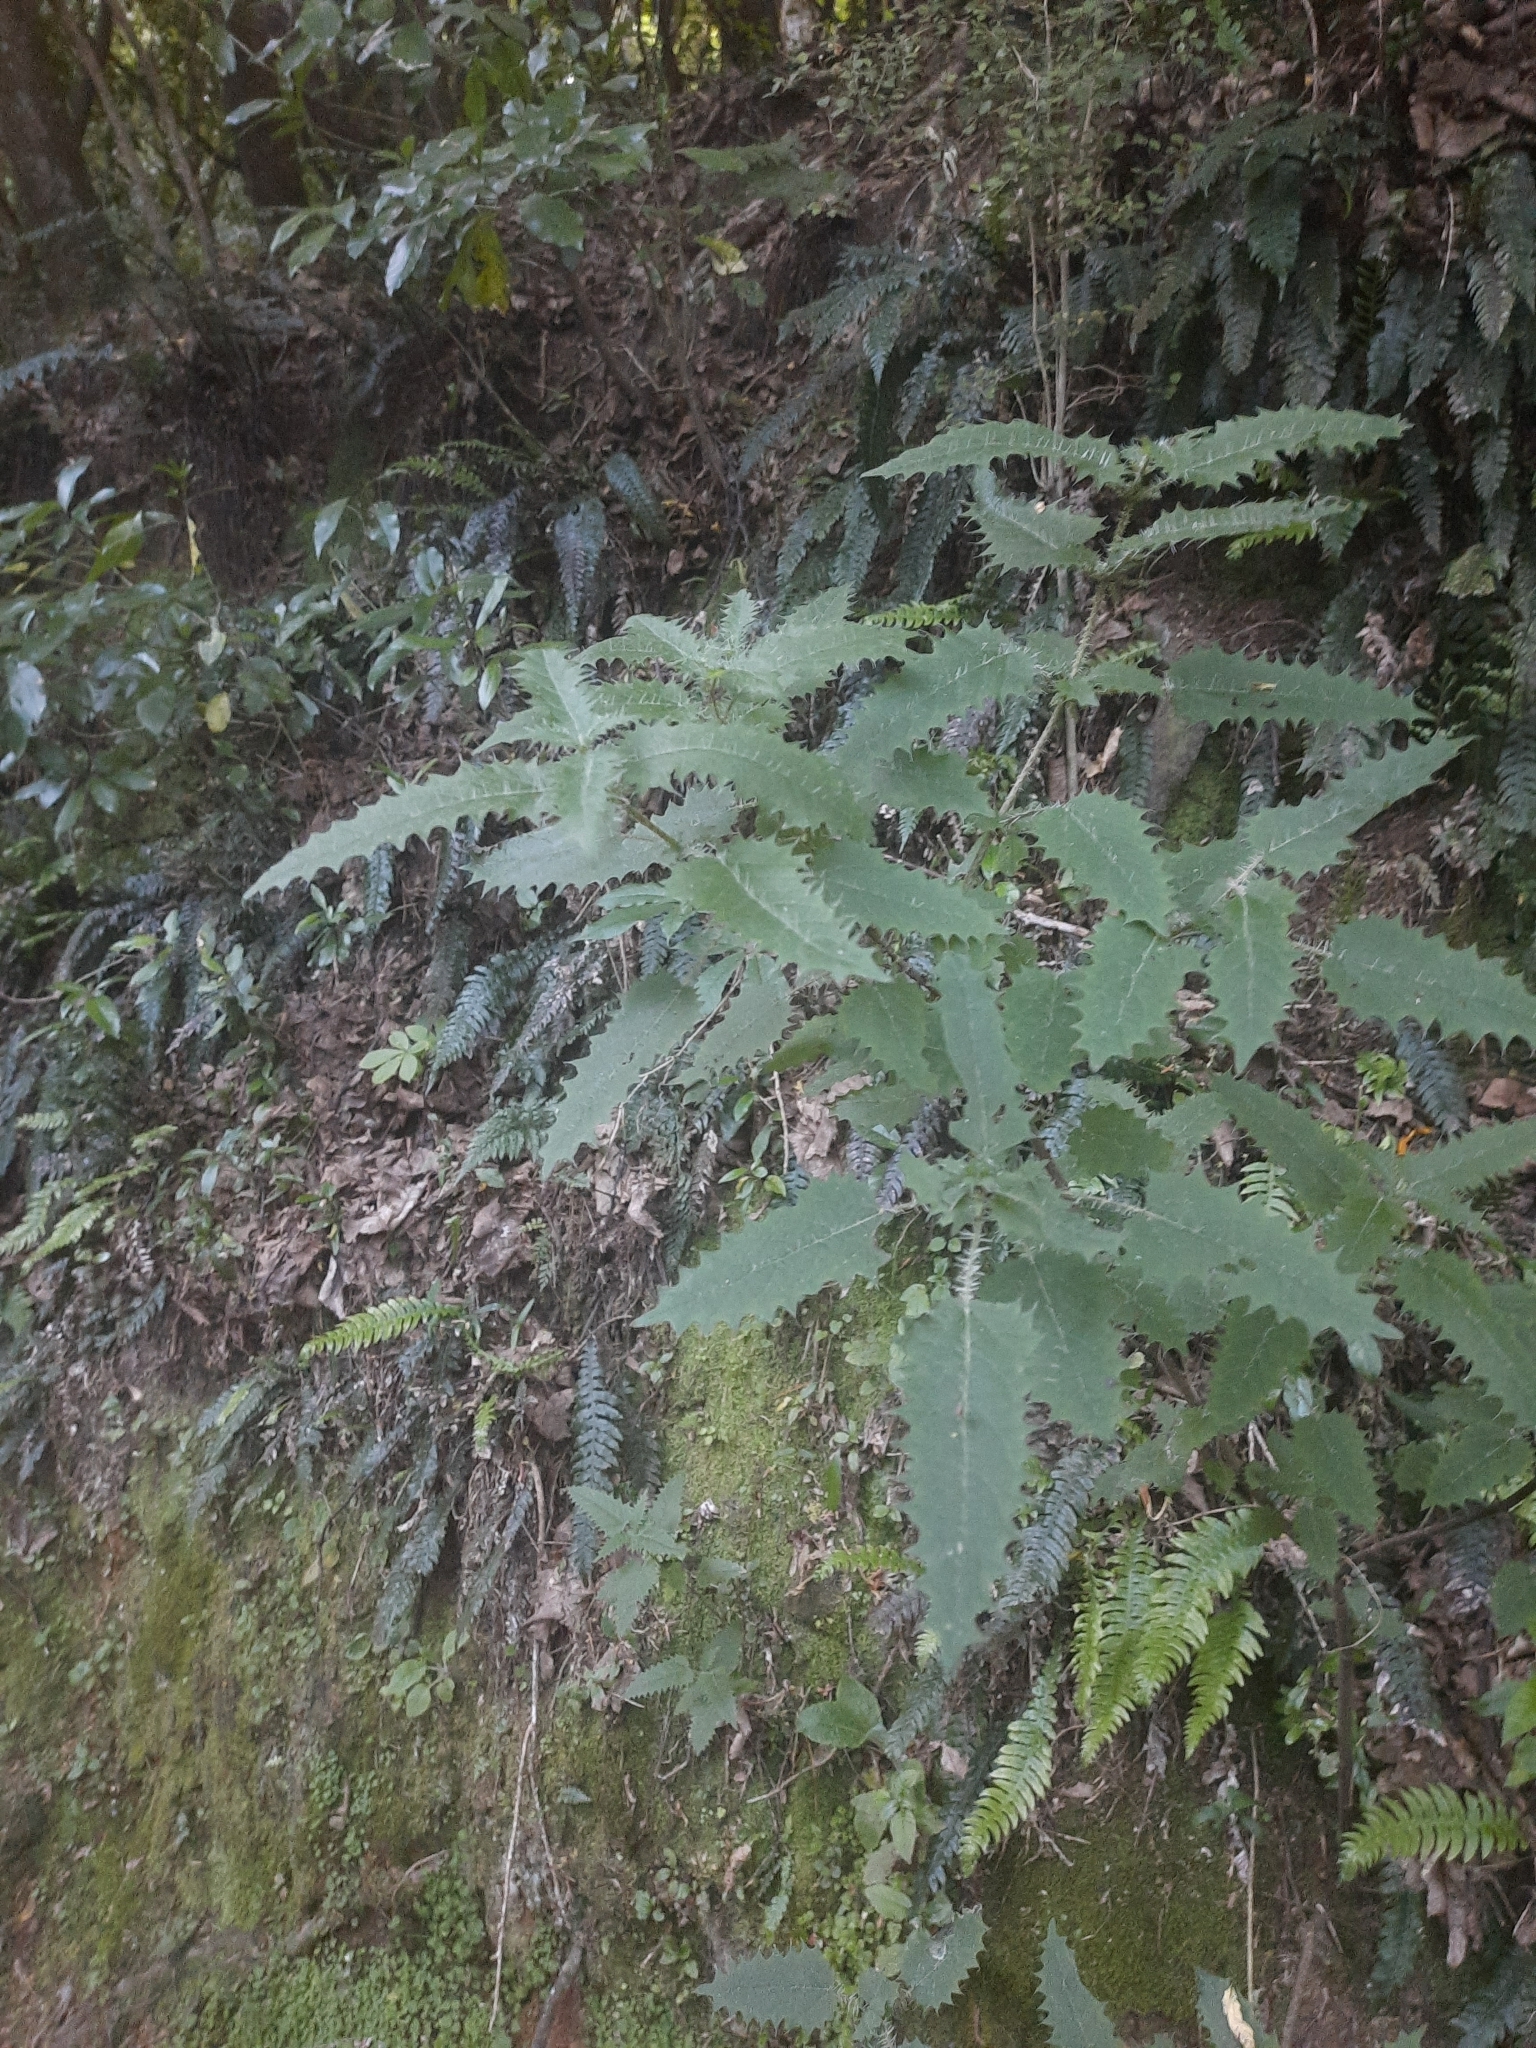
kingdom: Plantae
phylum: Tracheophyta
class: Magnoliopsida
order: Rosales
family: Urticaceae
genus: Urtica
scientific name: Urtica ferox
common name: Tree nettle
